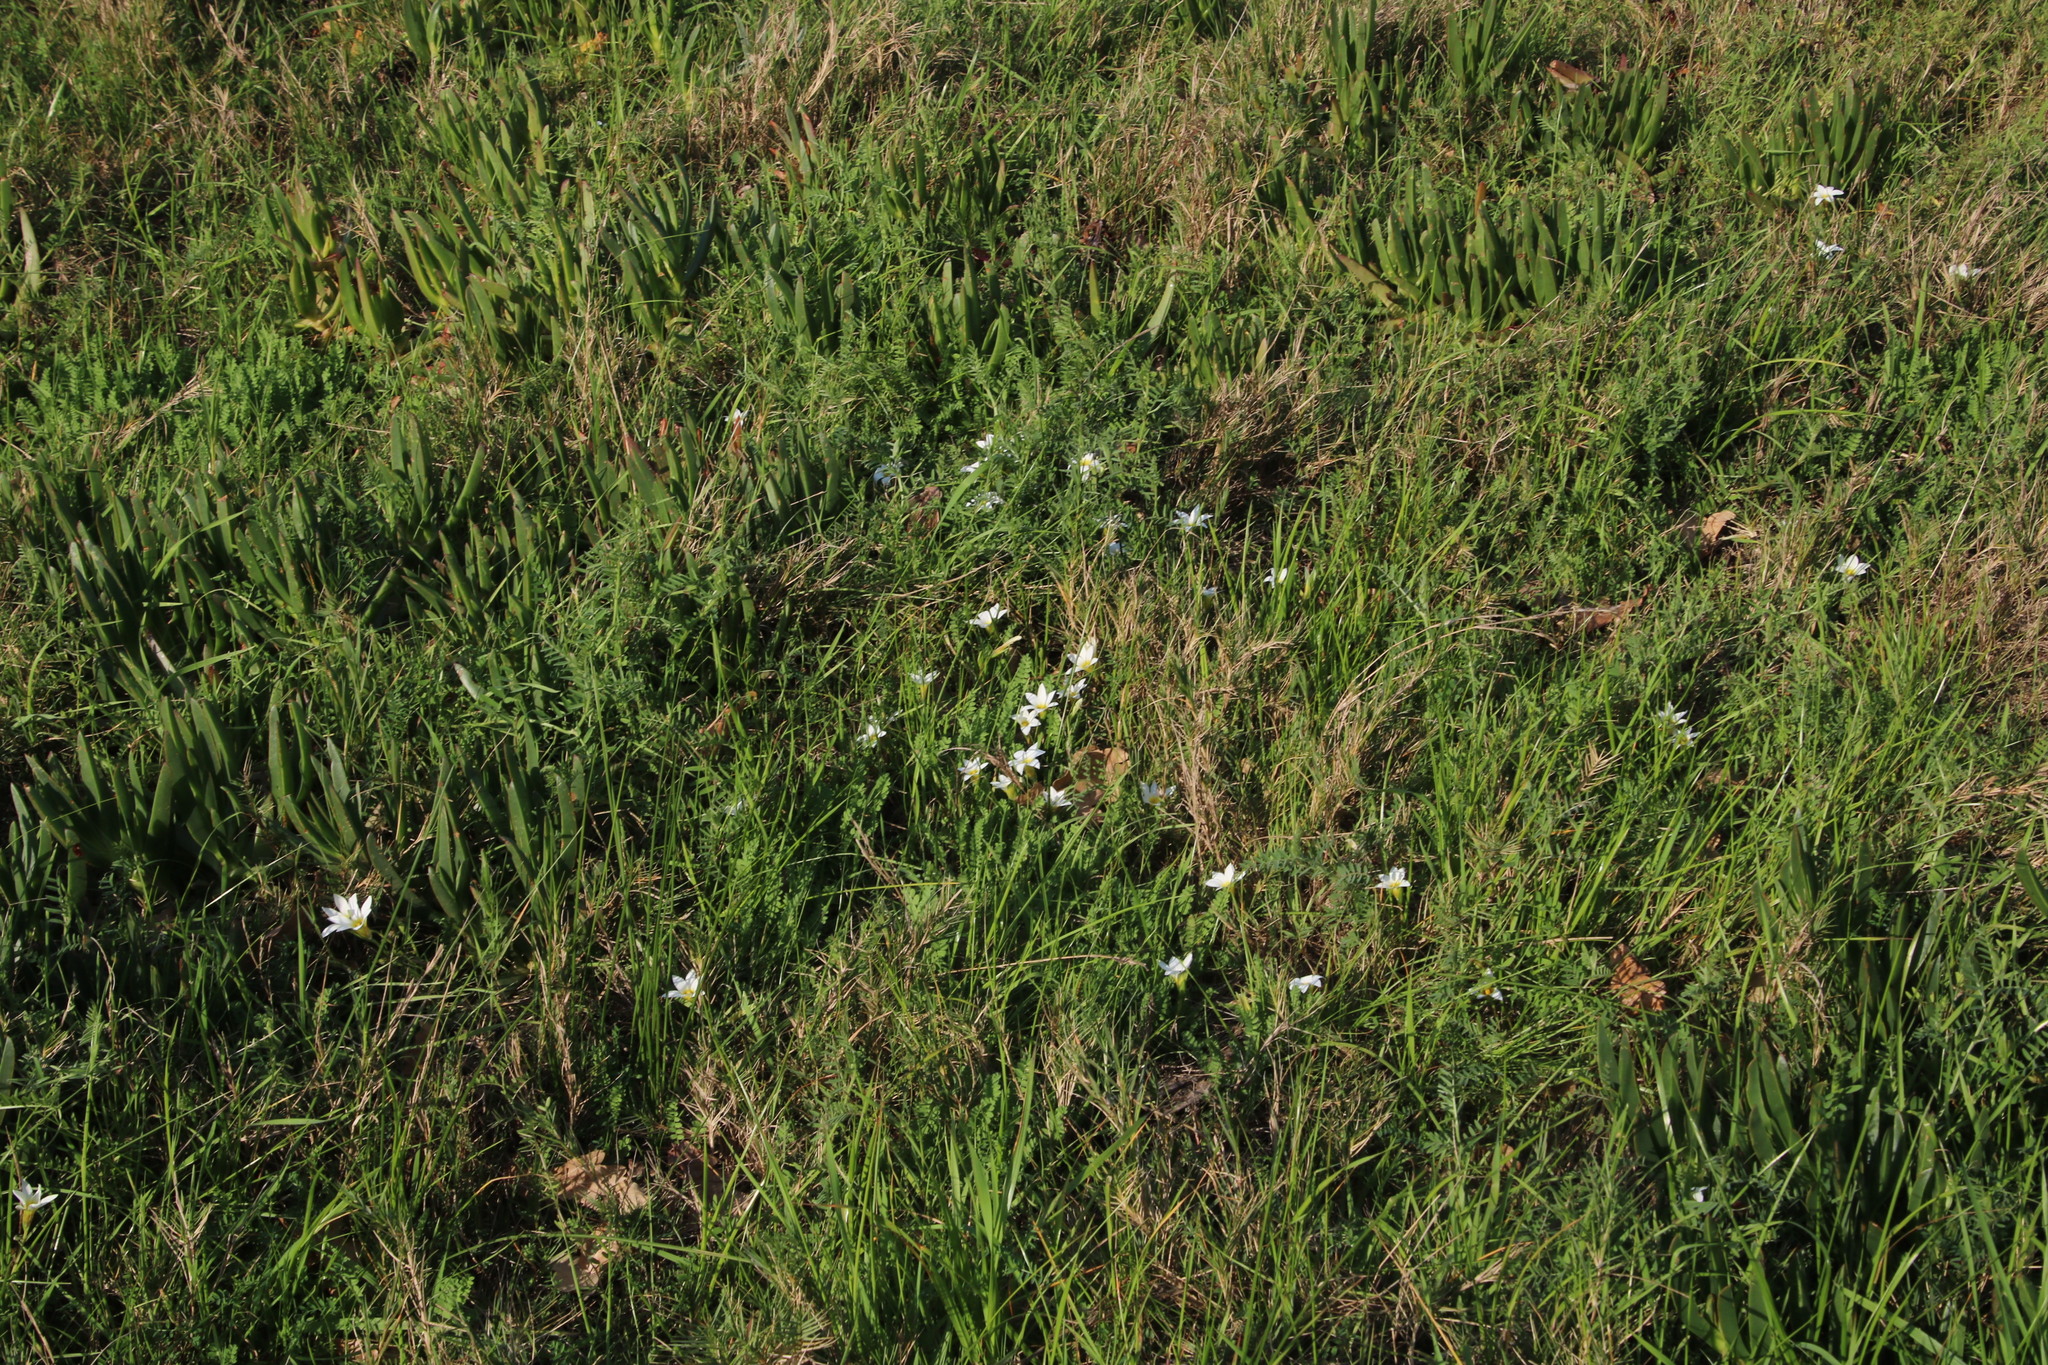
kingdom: Plantae
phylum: Tracheophyta
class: Liliopsida
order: Asparagales
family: Iridaceae
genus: Romulea
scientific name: Romulea flava
